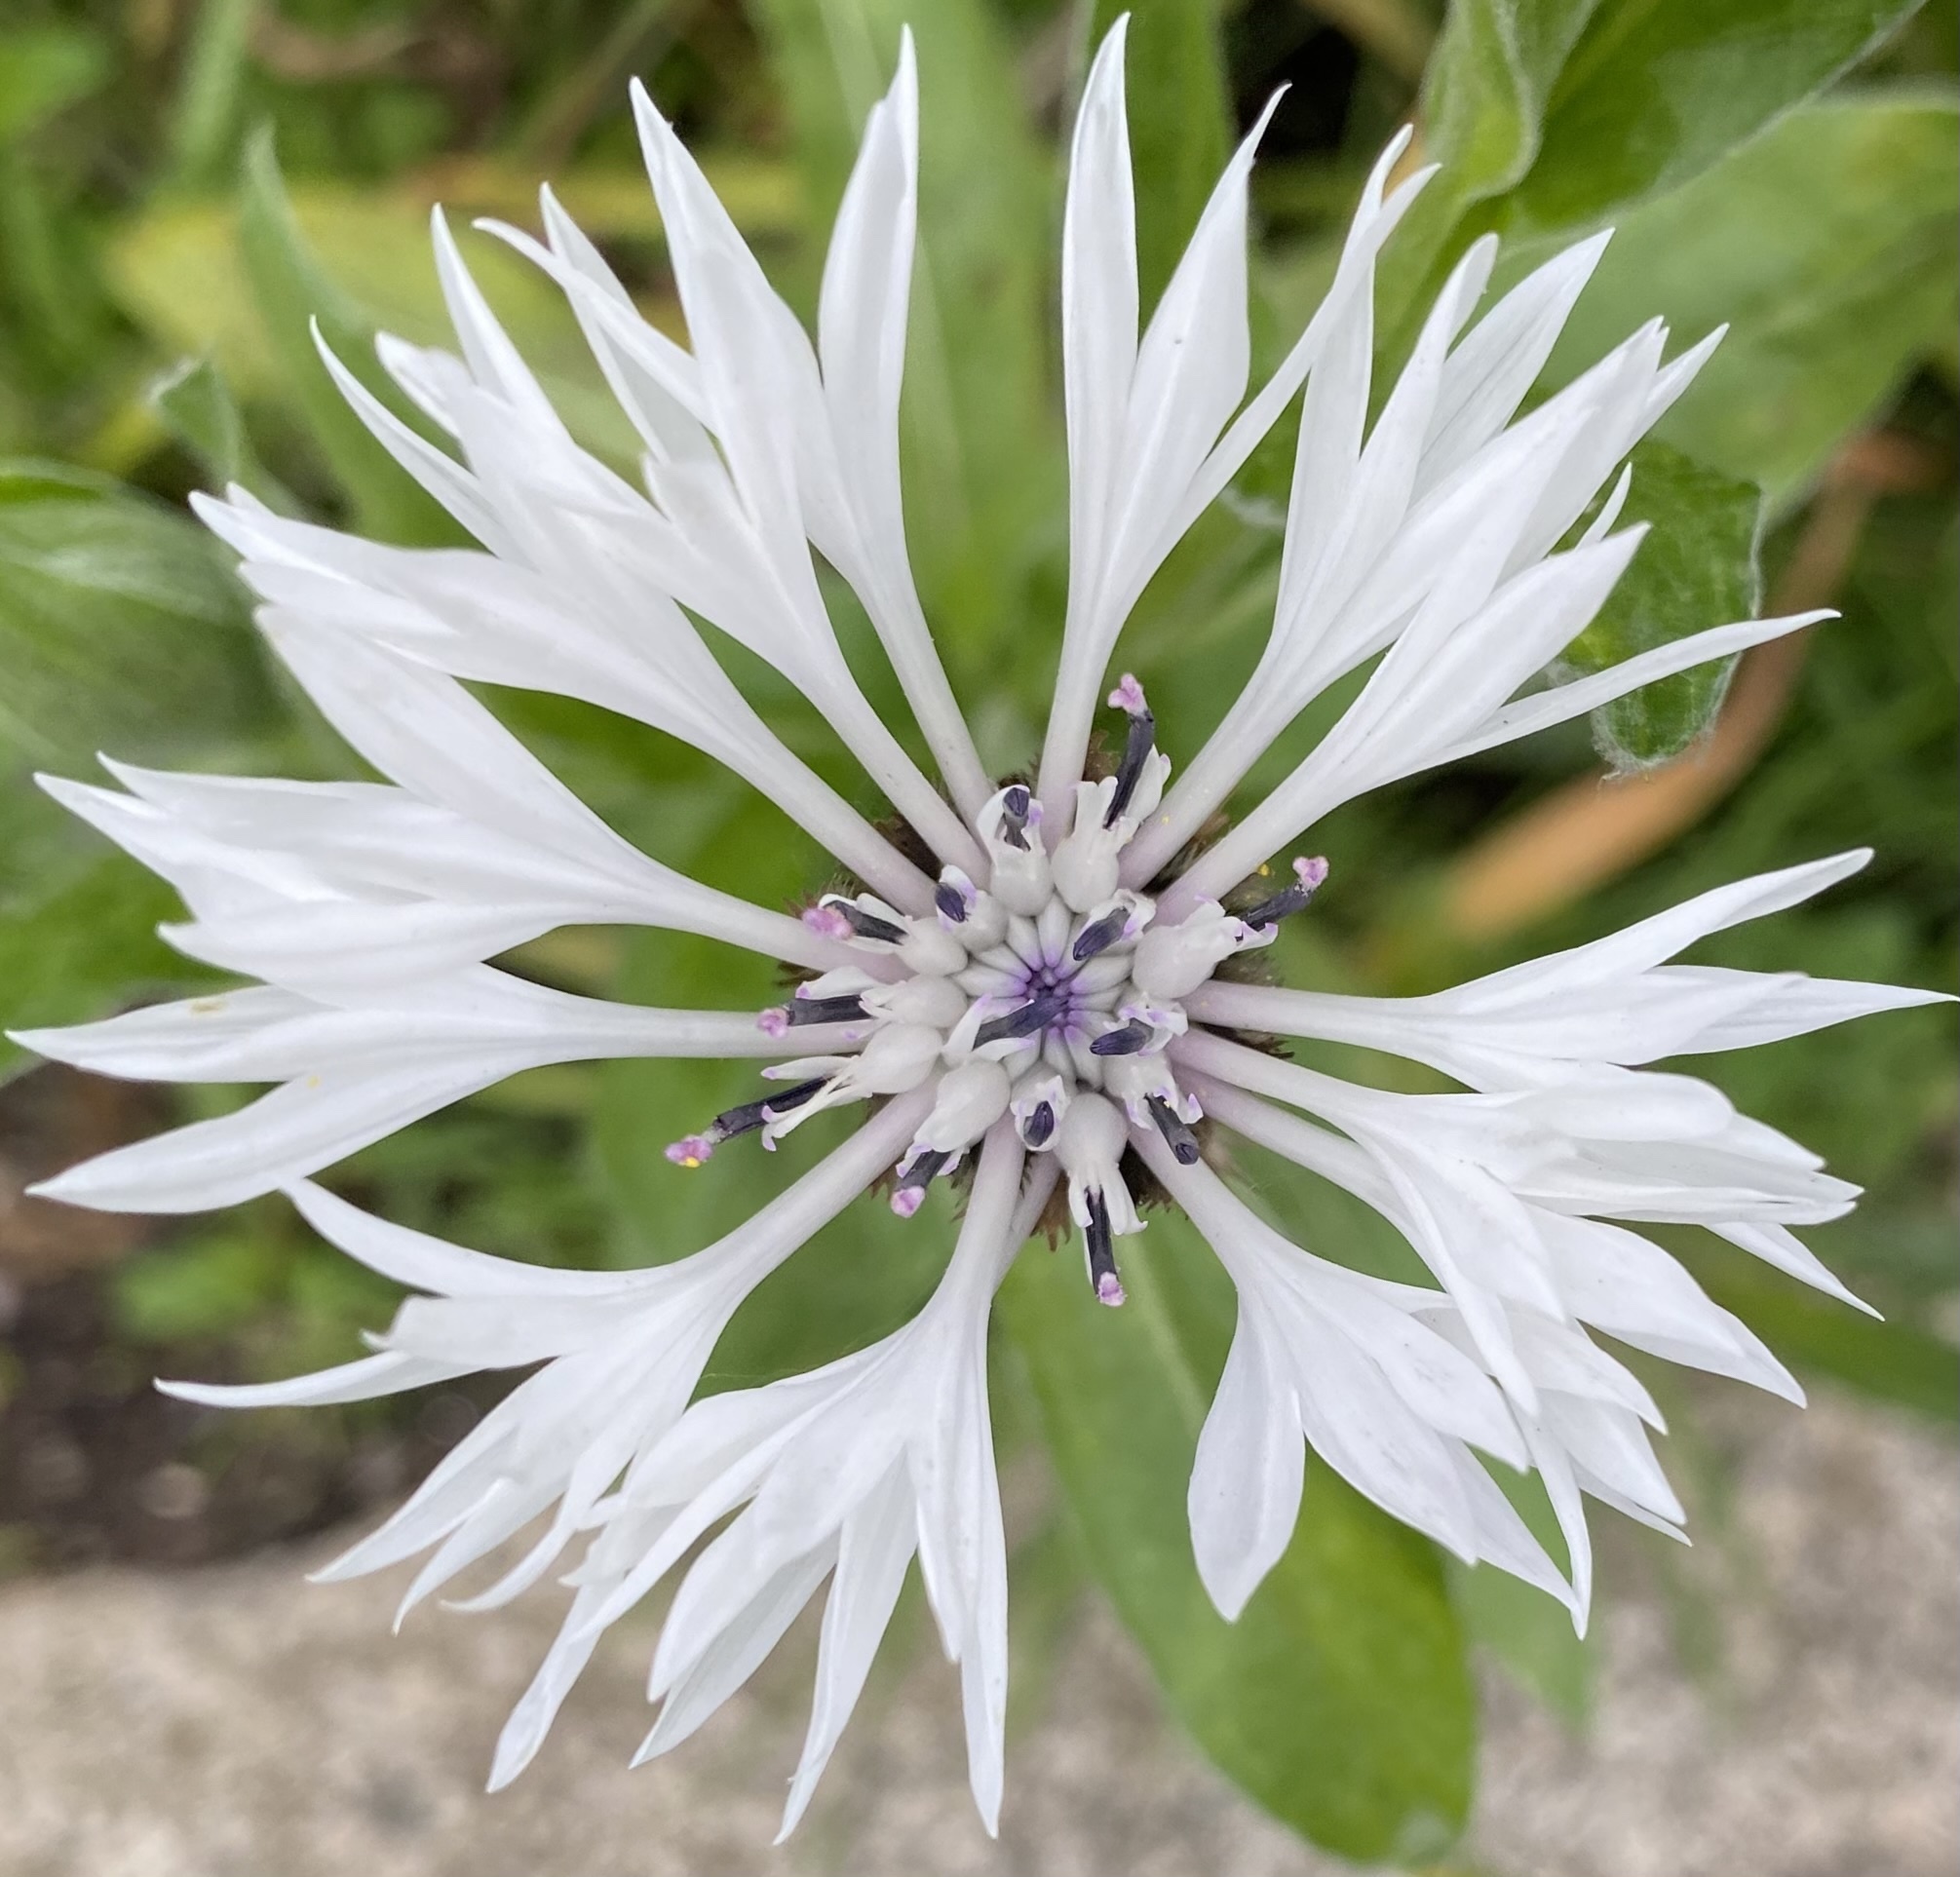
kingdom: Plantae
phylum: Tracheophyta
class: Magnoliopsida
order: Asterales
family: Asteraceae
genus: Centaurea
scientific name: Centaurea montana
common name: Perennial cornflower
